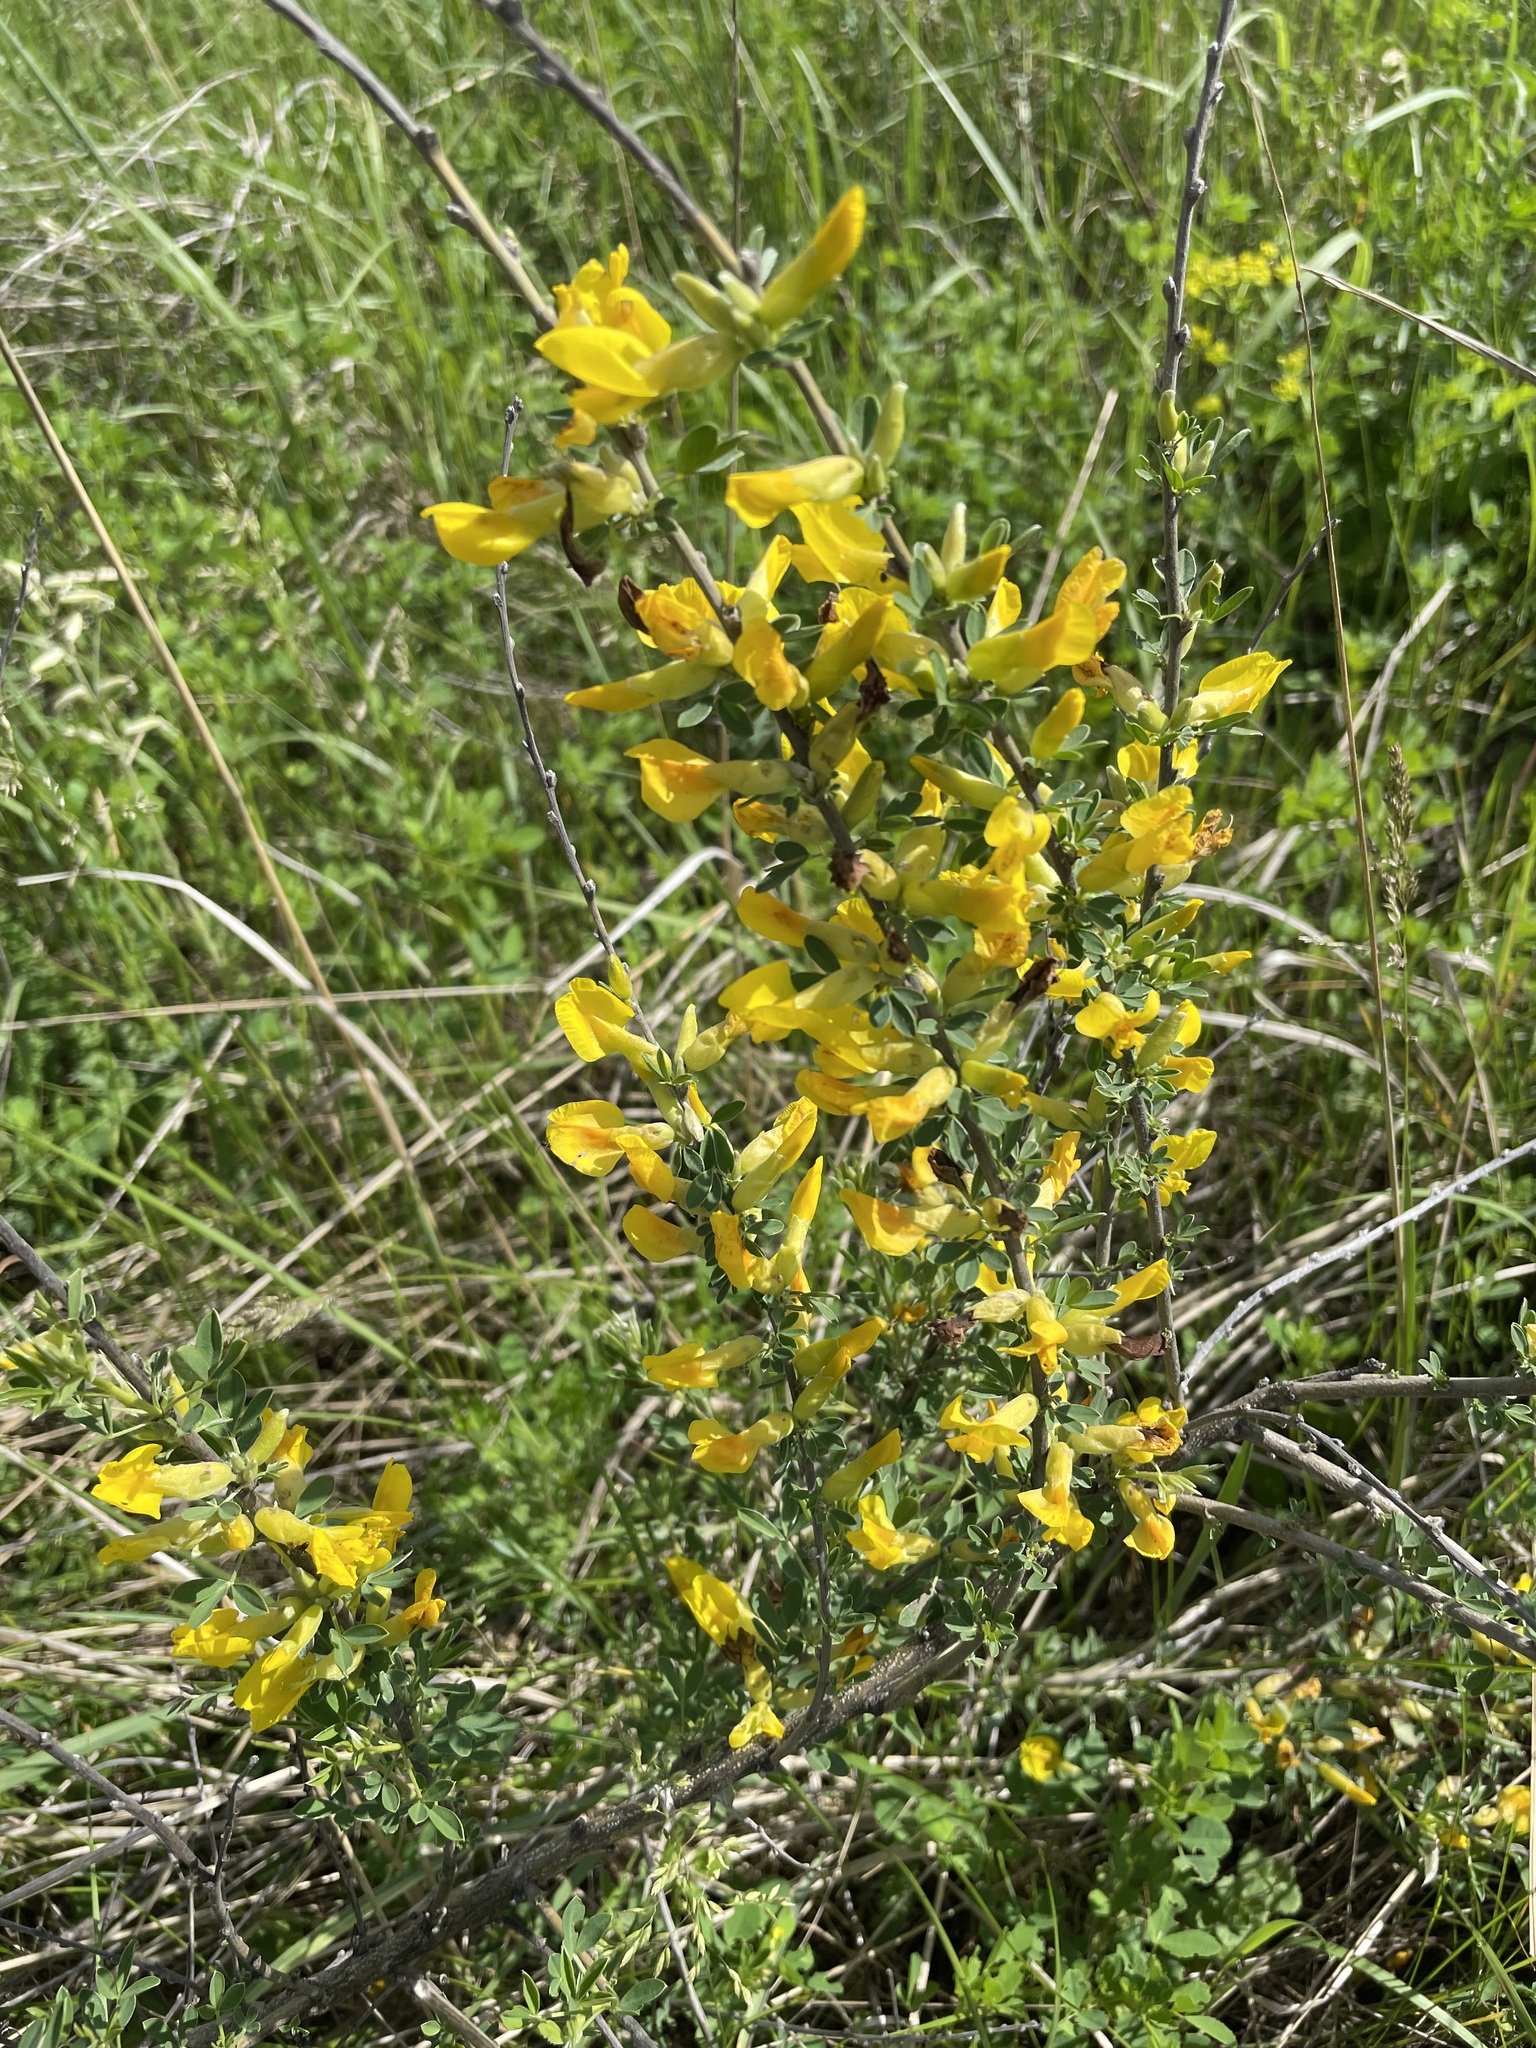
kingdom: Plantae
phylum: Tracheophyta
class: Magnoliopsida
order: Fabales
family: Fabaceae
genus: Chamaecytisus
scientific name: Chamaecytisus ruthenicus
